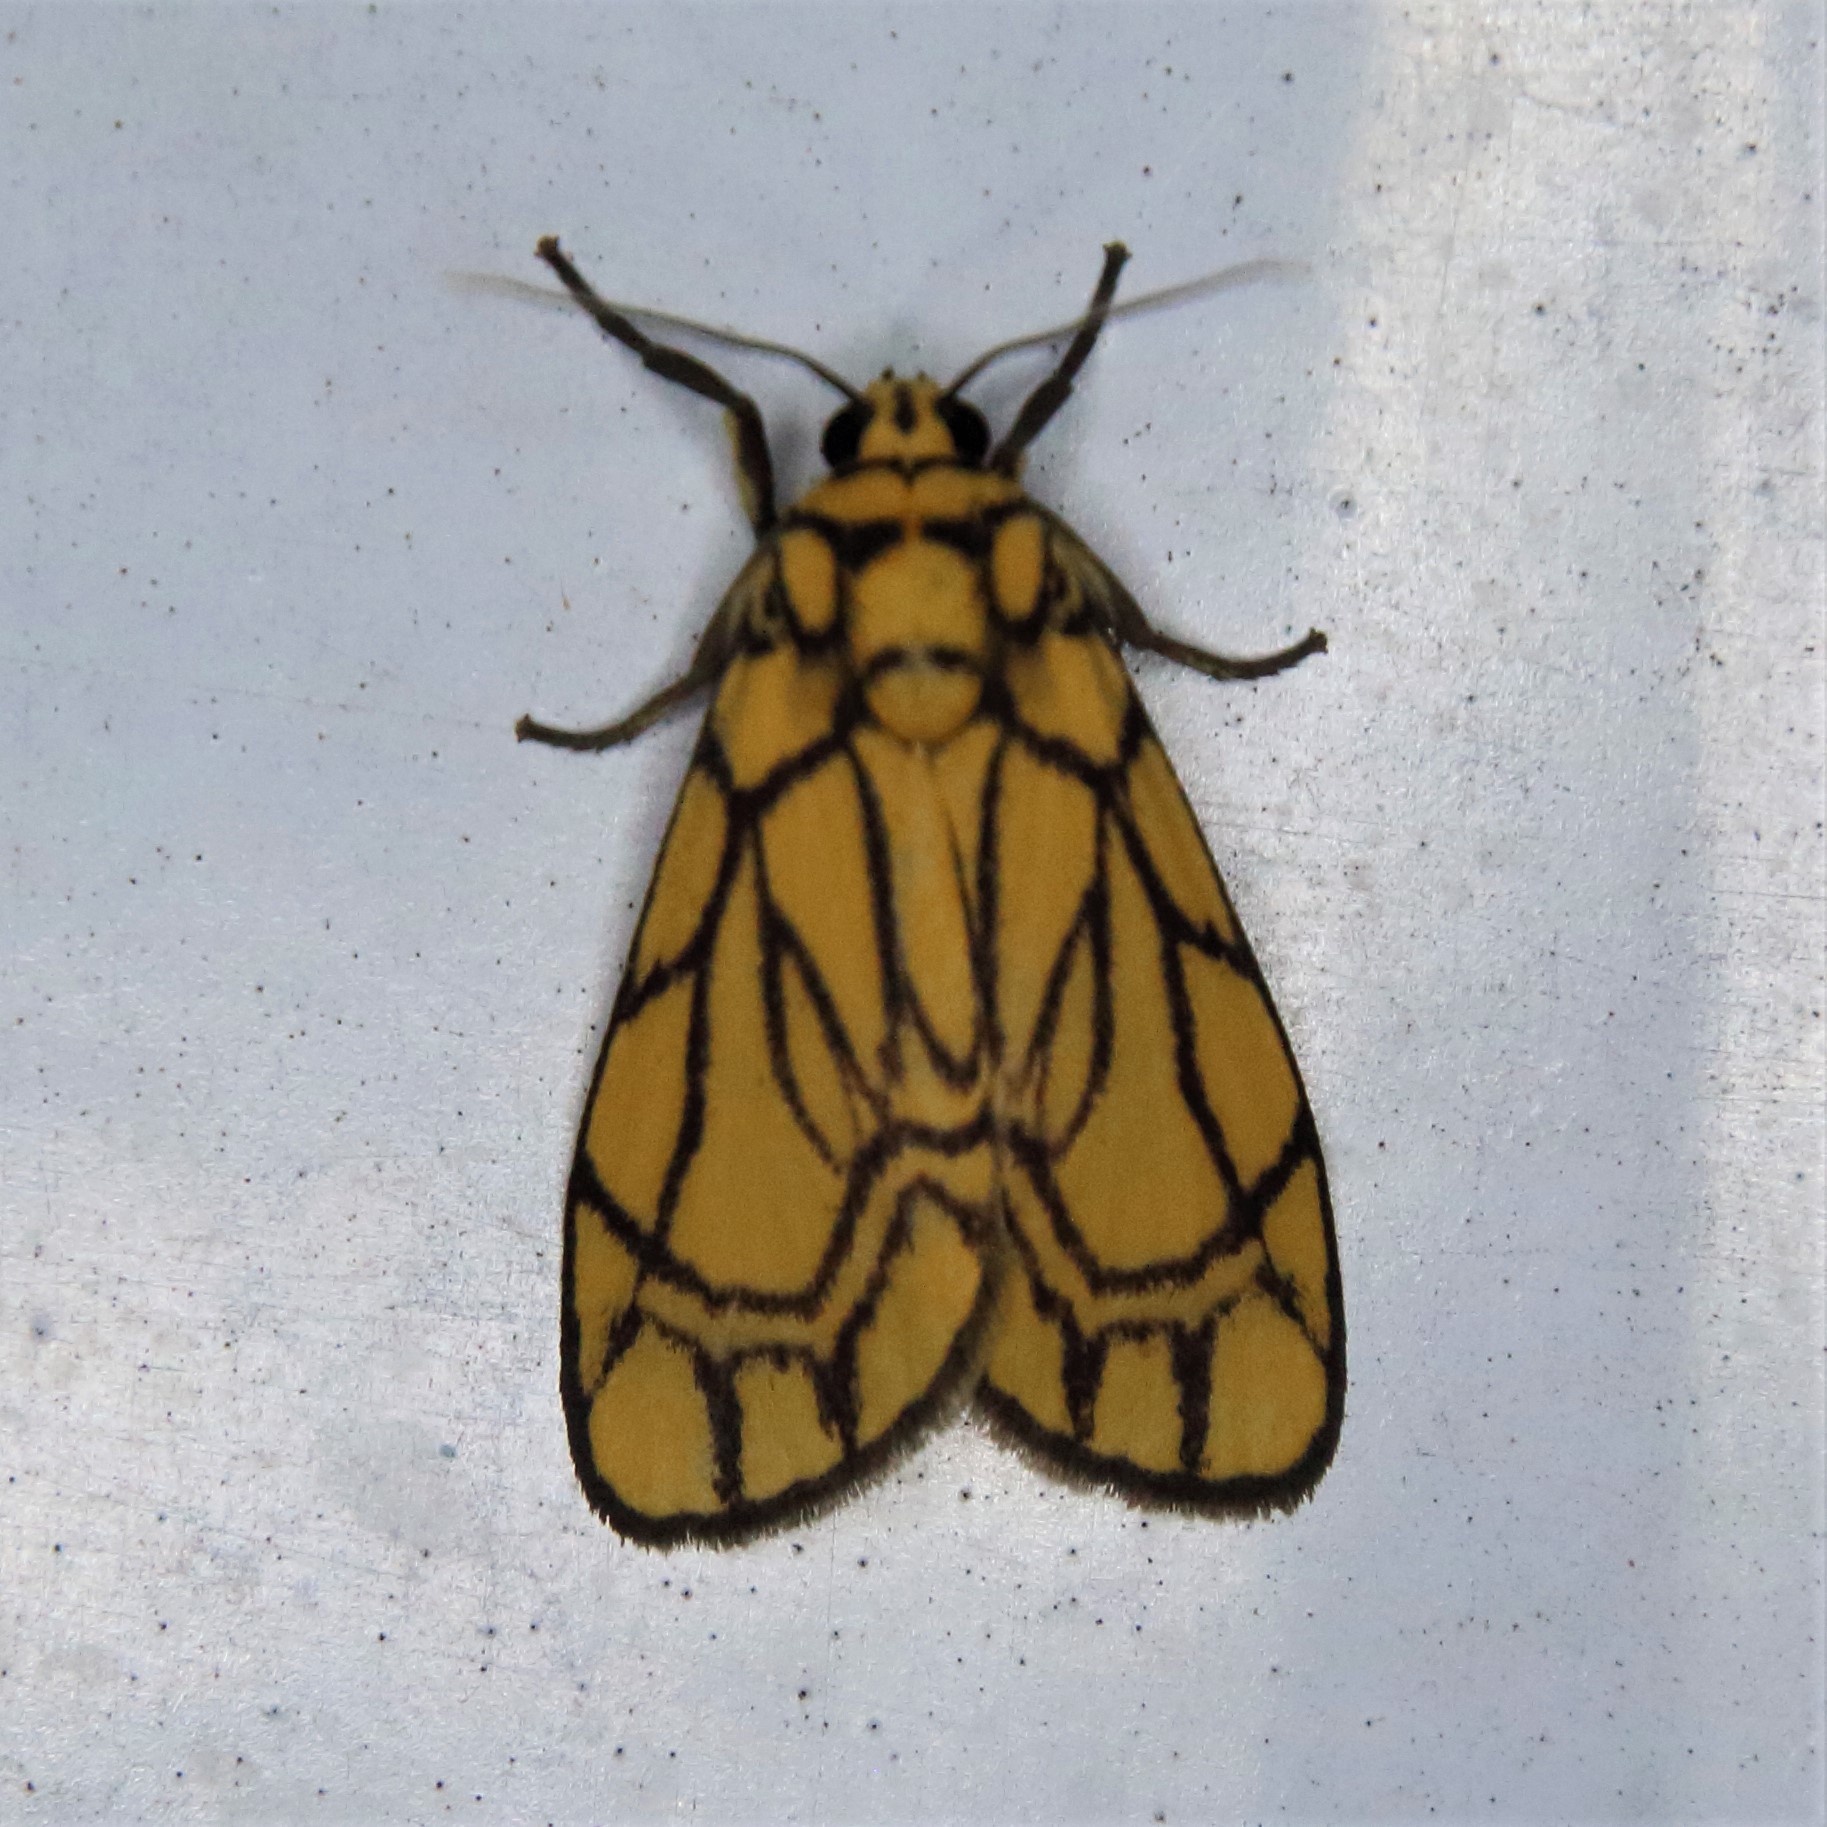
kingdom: Animalia
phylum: Arthropoda
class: Insecta
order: Lepidoptera
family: Erebidae
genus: Cyme
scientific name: Cyme euprepioides
